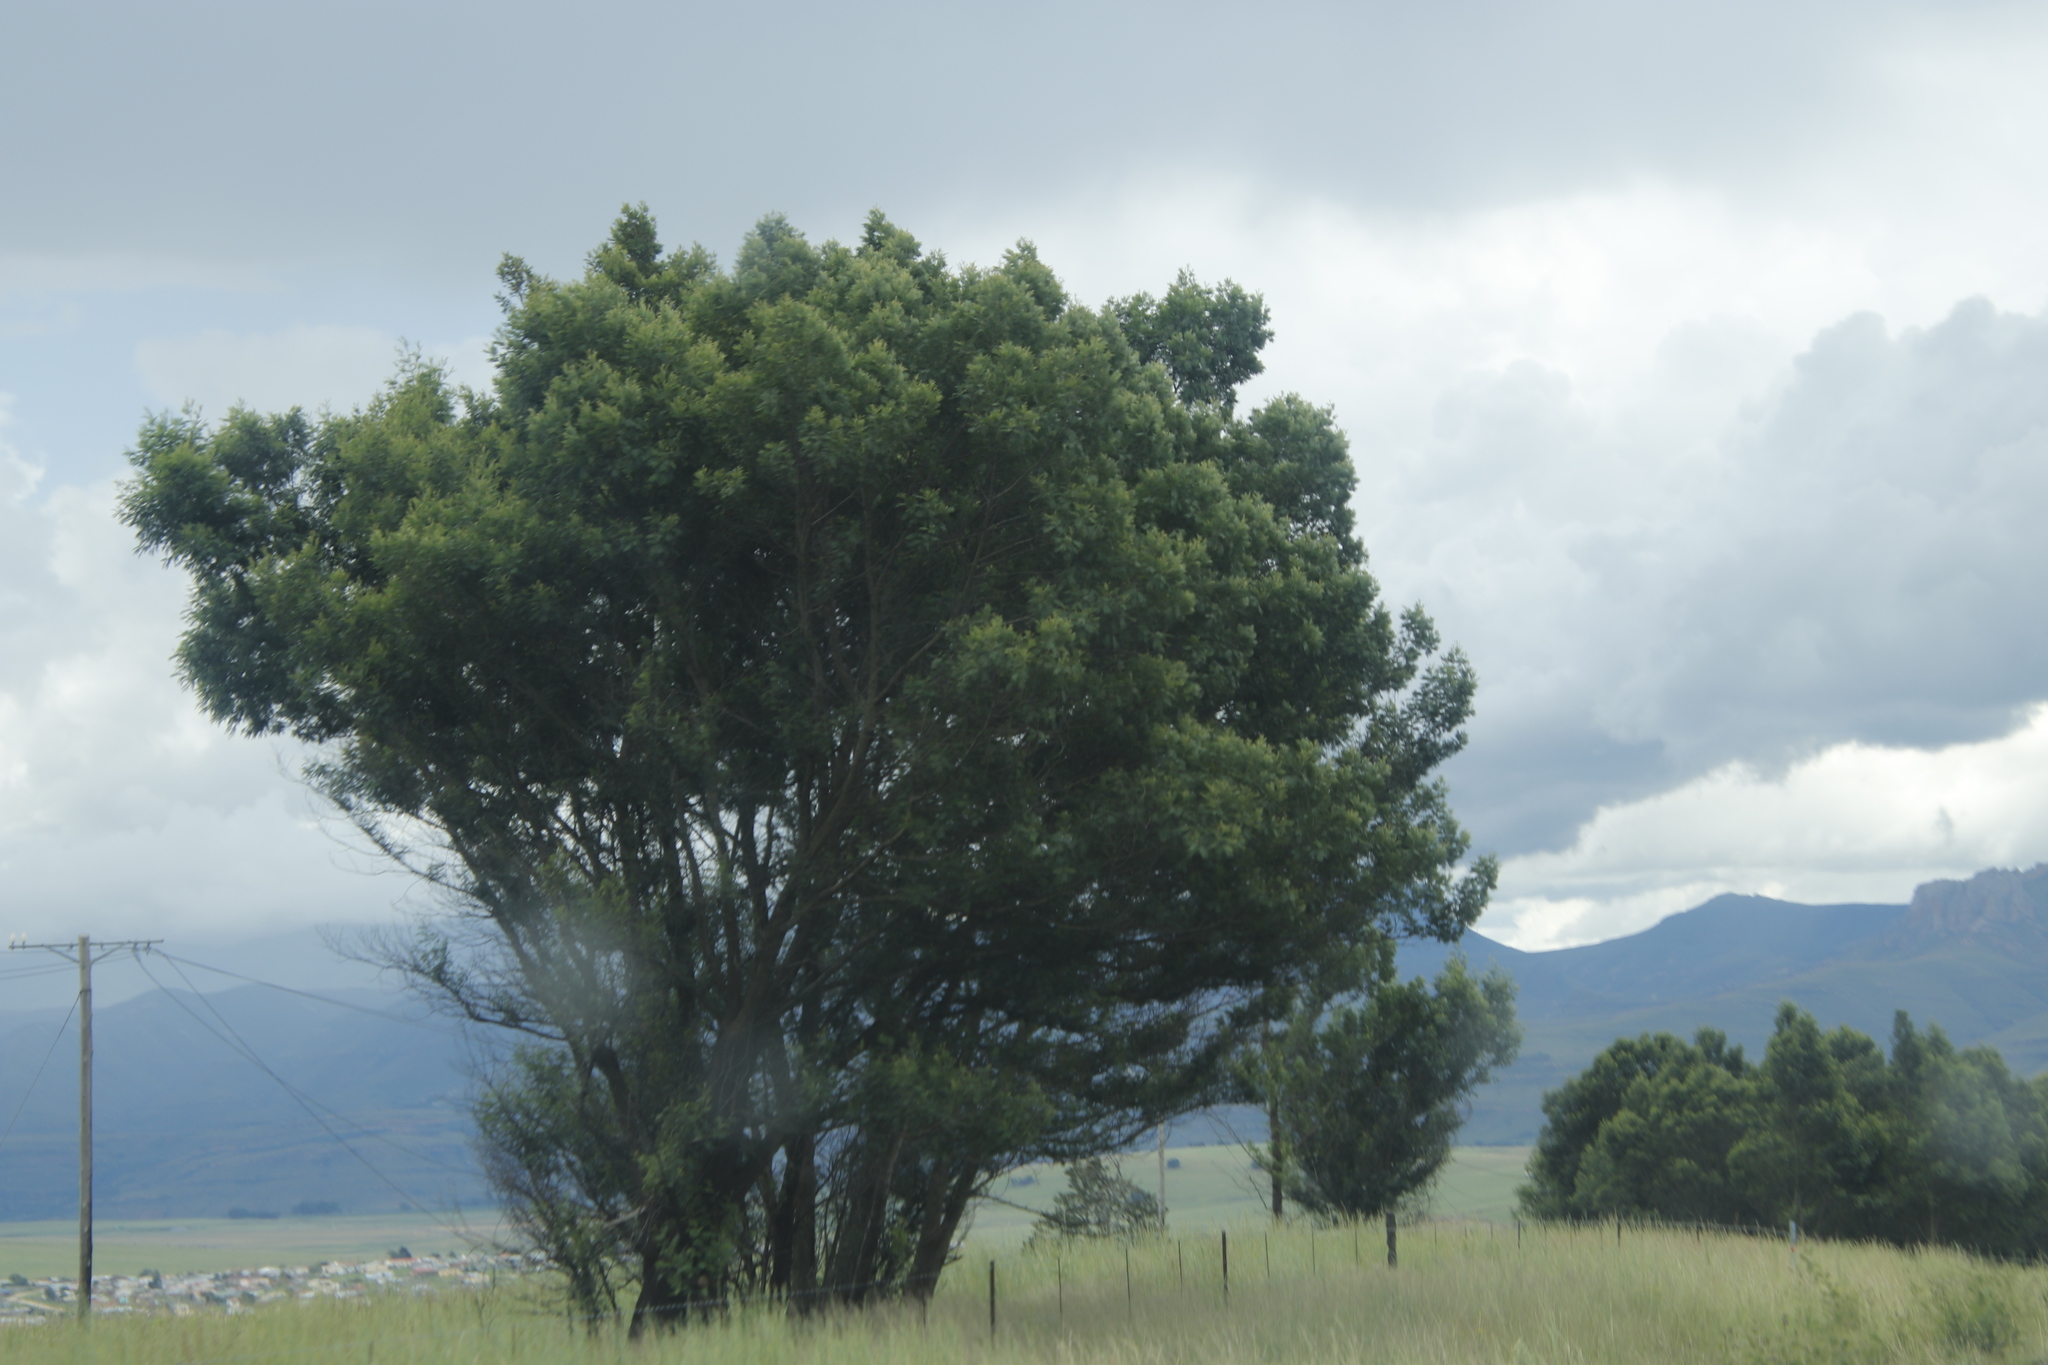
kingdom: Plantae
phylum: Tracheophyta
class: Magnoliopsida
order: Fabales
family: Fabaceae
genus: Acacia
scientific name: Acacia mearnsii
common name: Black wattle
